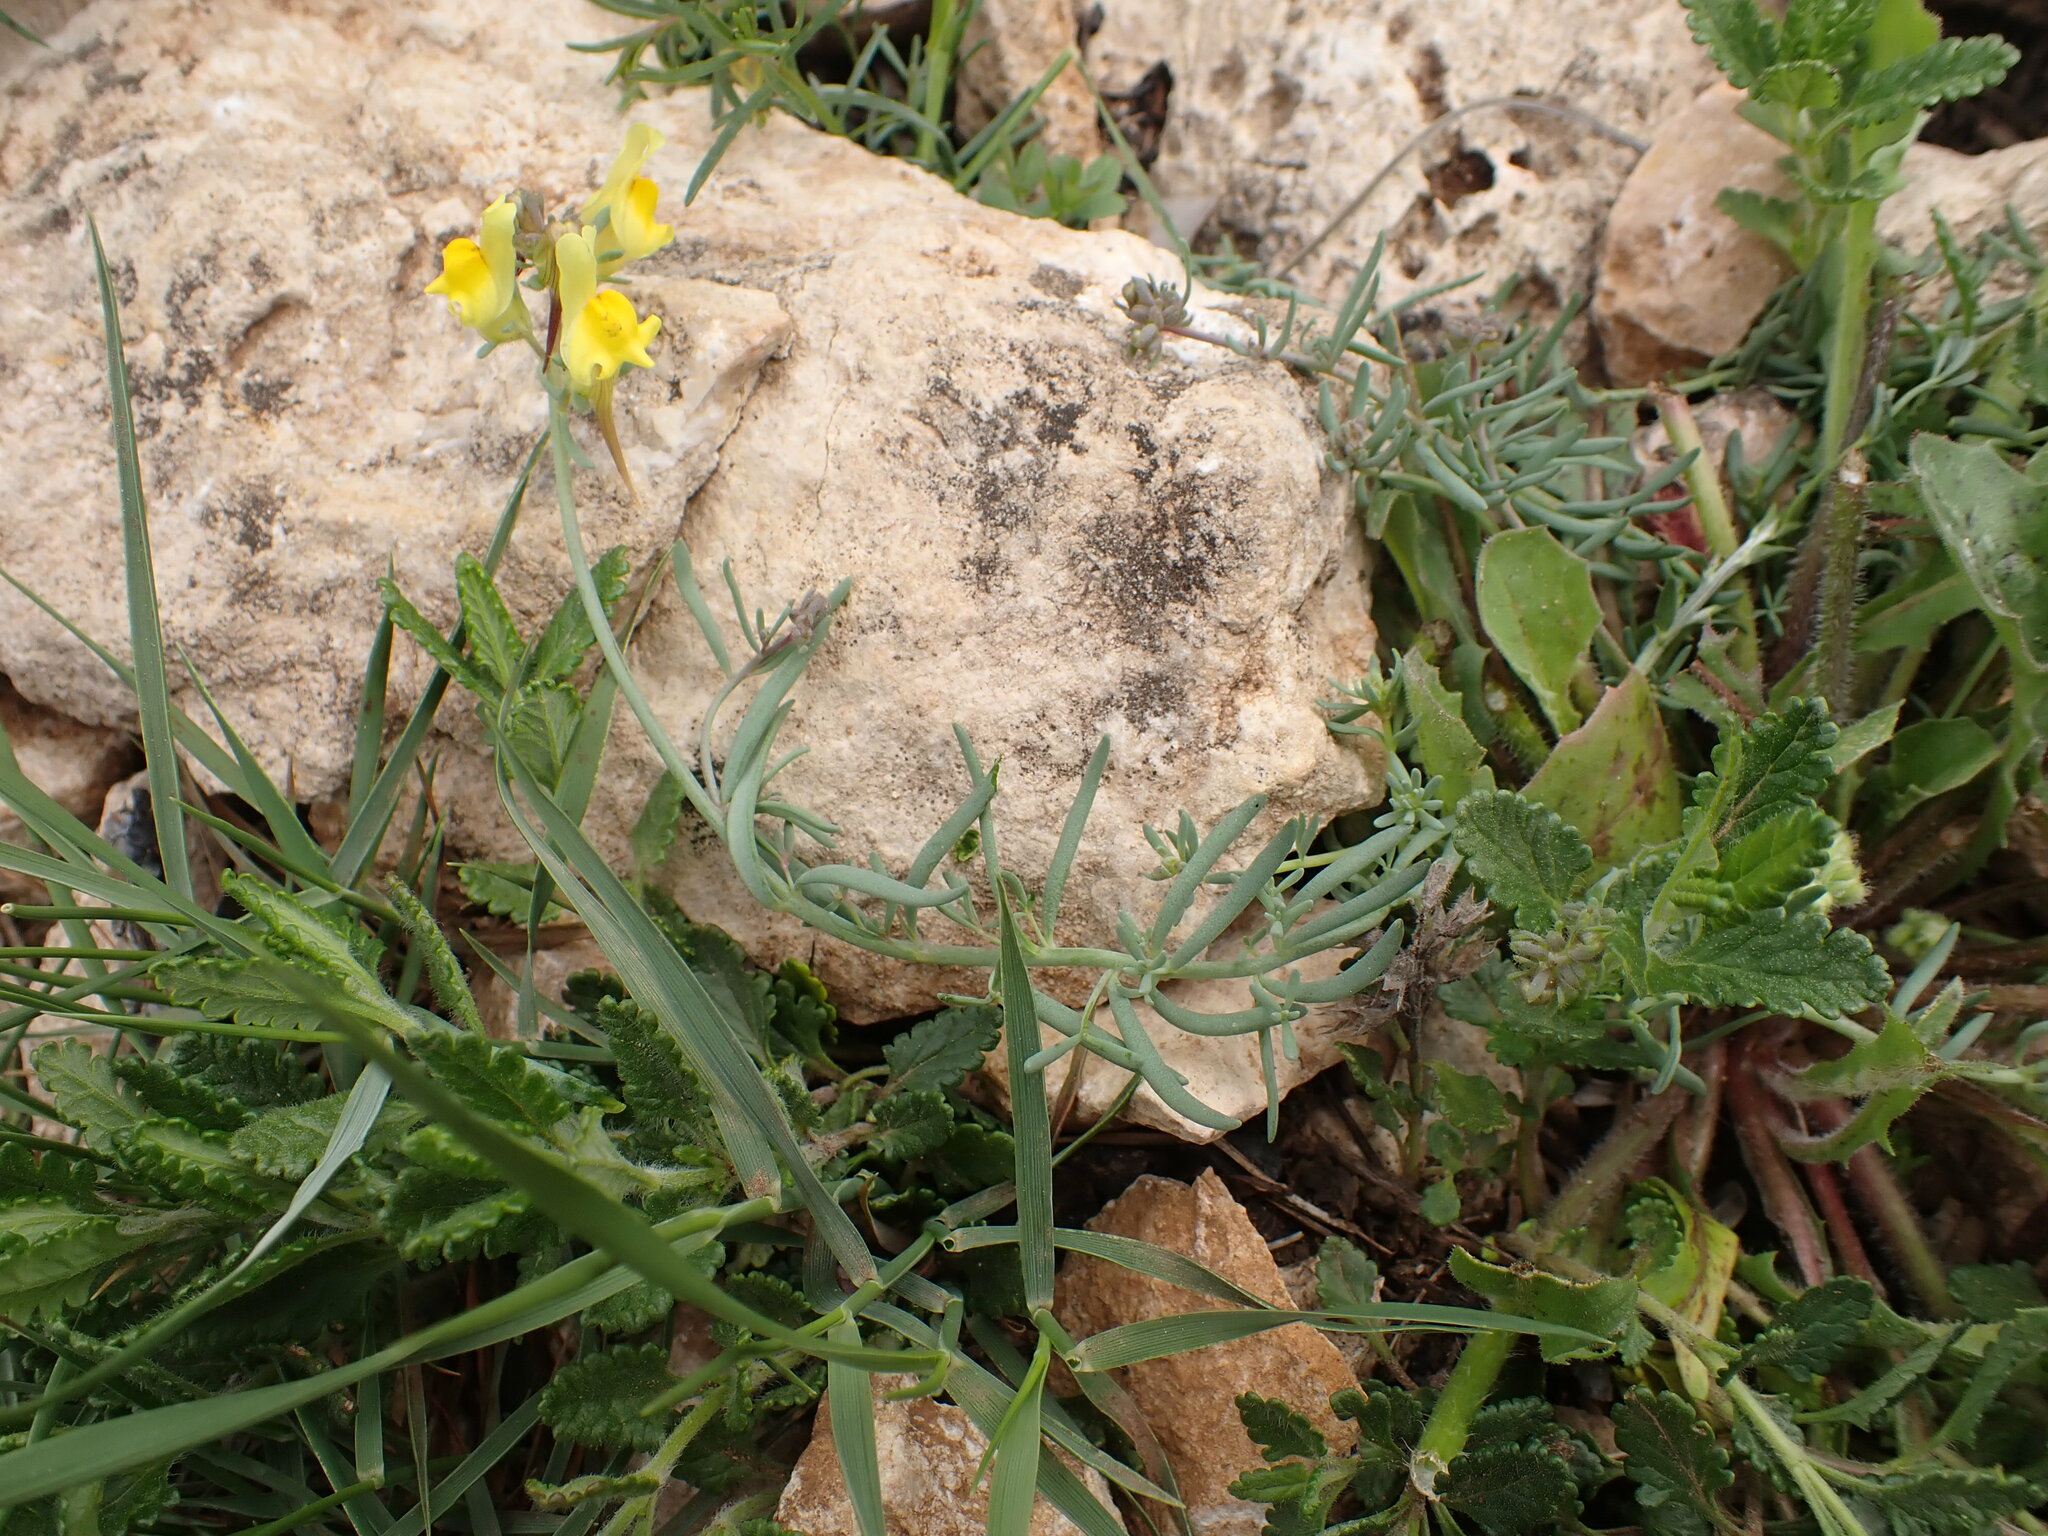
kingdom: Plantae
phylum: Tracheophyta
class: Magnoliopsida
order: Lamiales
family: Plantaginaceae
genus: Linaria
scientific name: Linaria supina
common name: Prostrate toadflax
